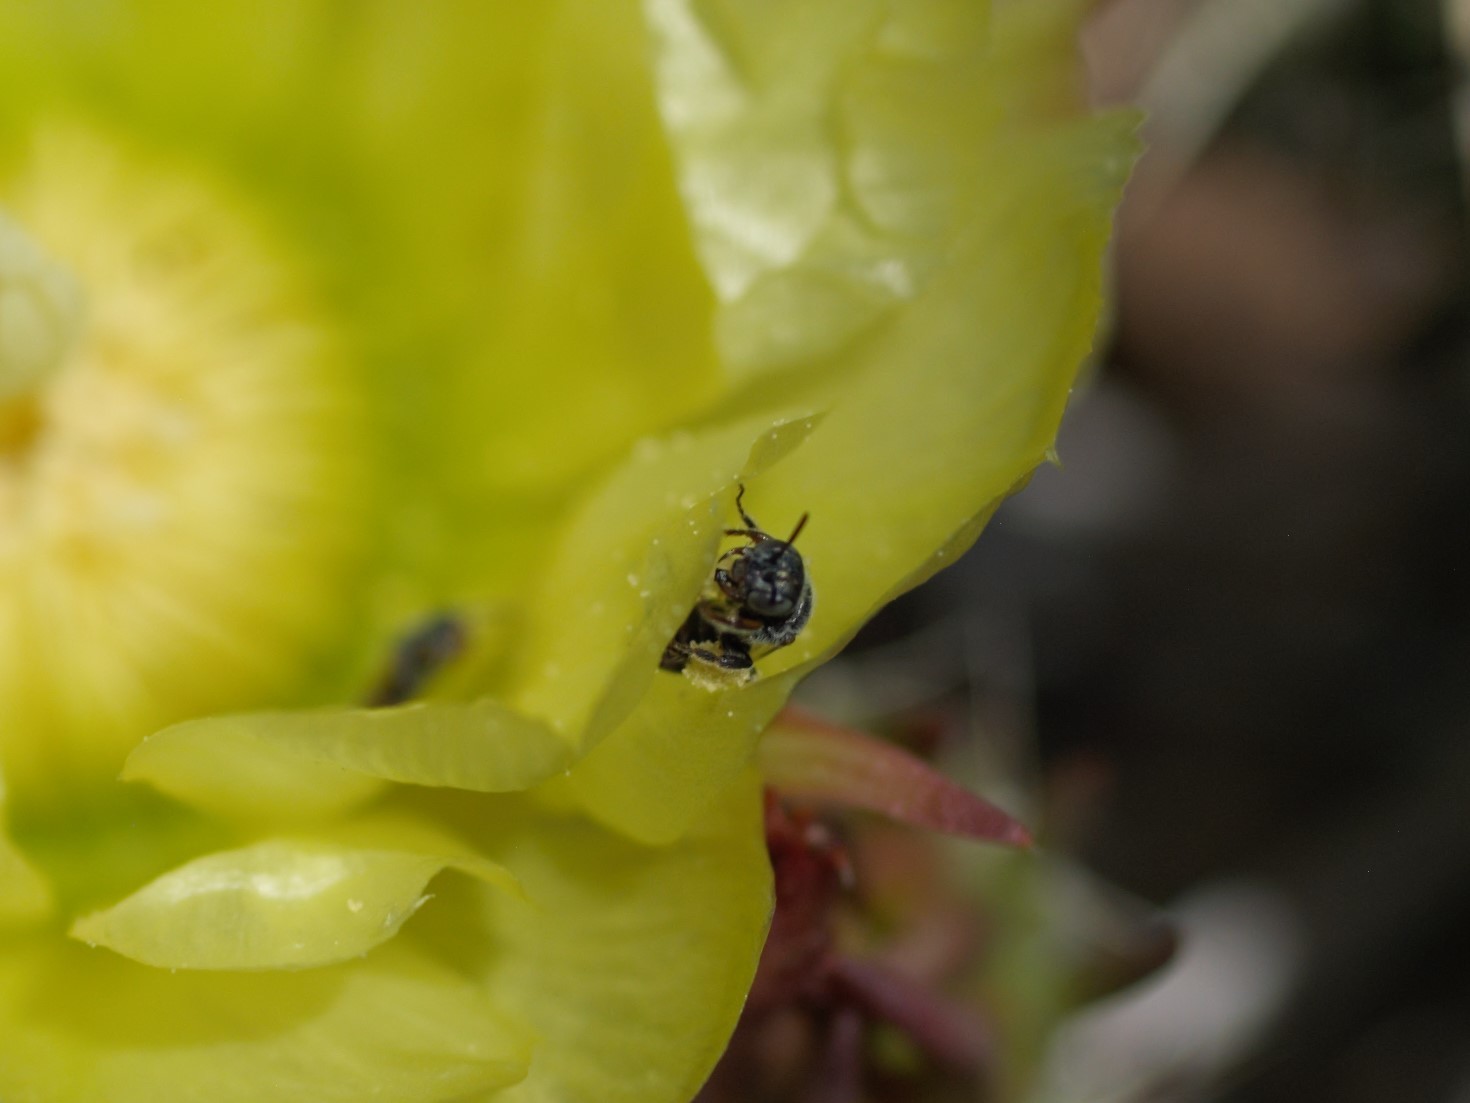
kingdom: Animalia
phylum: Arthropoda
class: Insecta
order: Hymenoptera
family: Andrenidae
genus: Macrotera
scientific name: Macrotera
